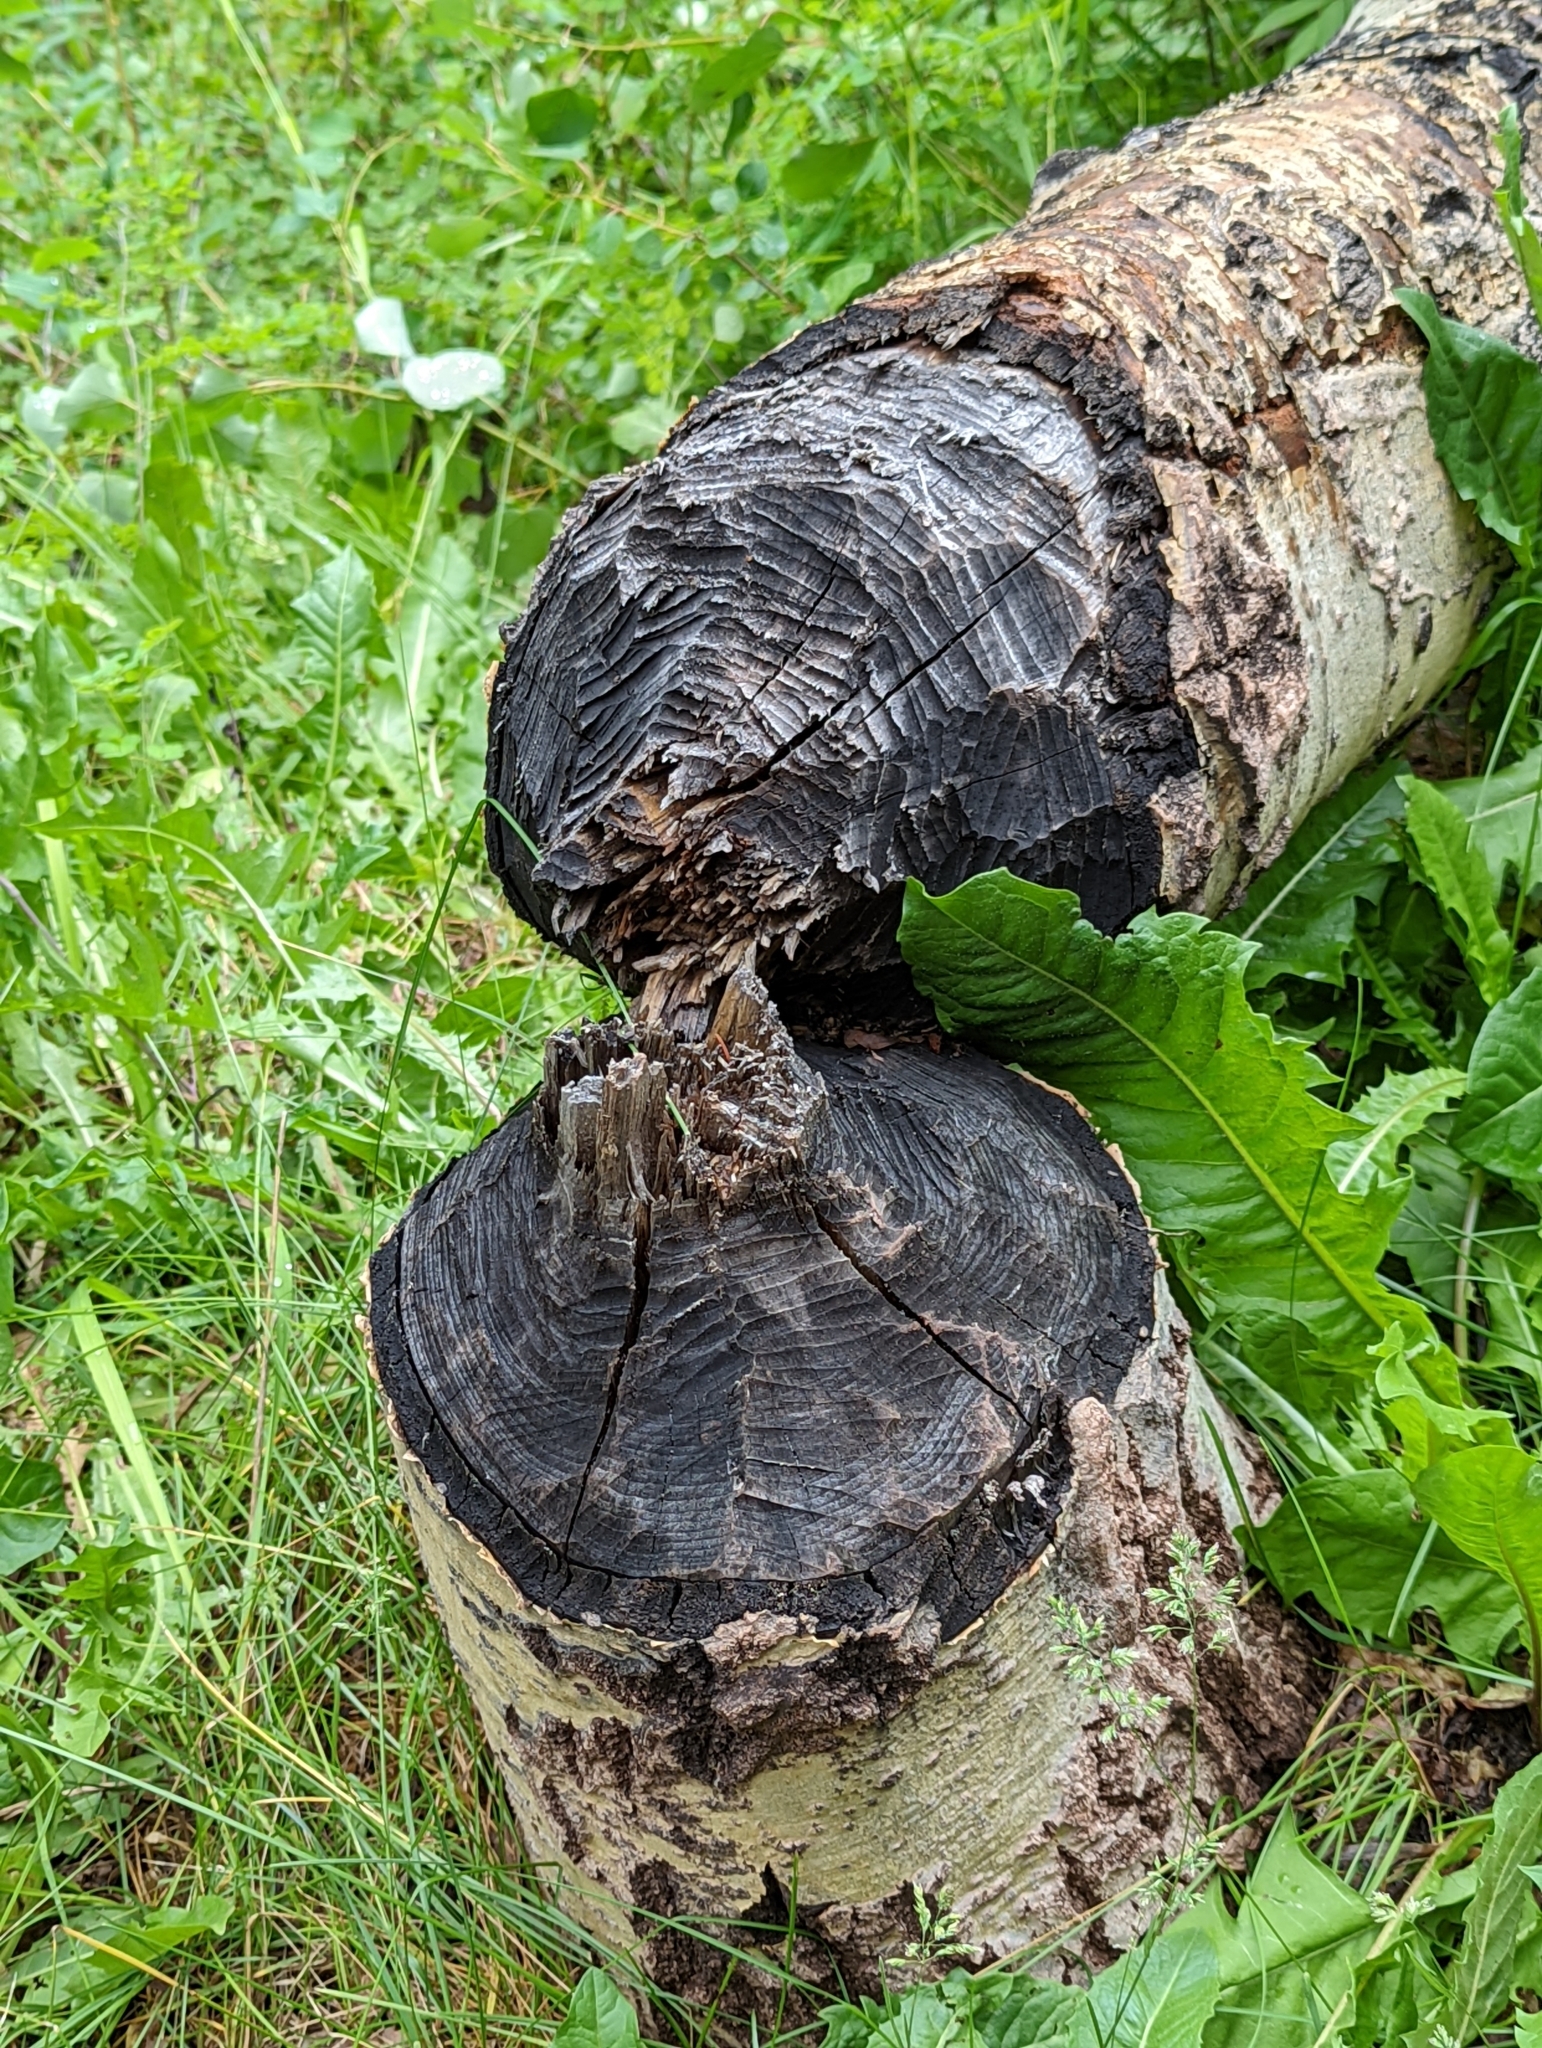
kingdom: Animalia
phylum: Chordata
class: Mammalia
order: Rodentia
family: Castoridae
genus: Castor
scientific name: Castor canadensis
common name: American beaver
